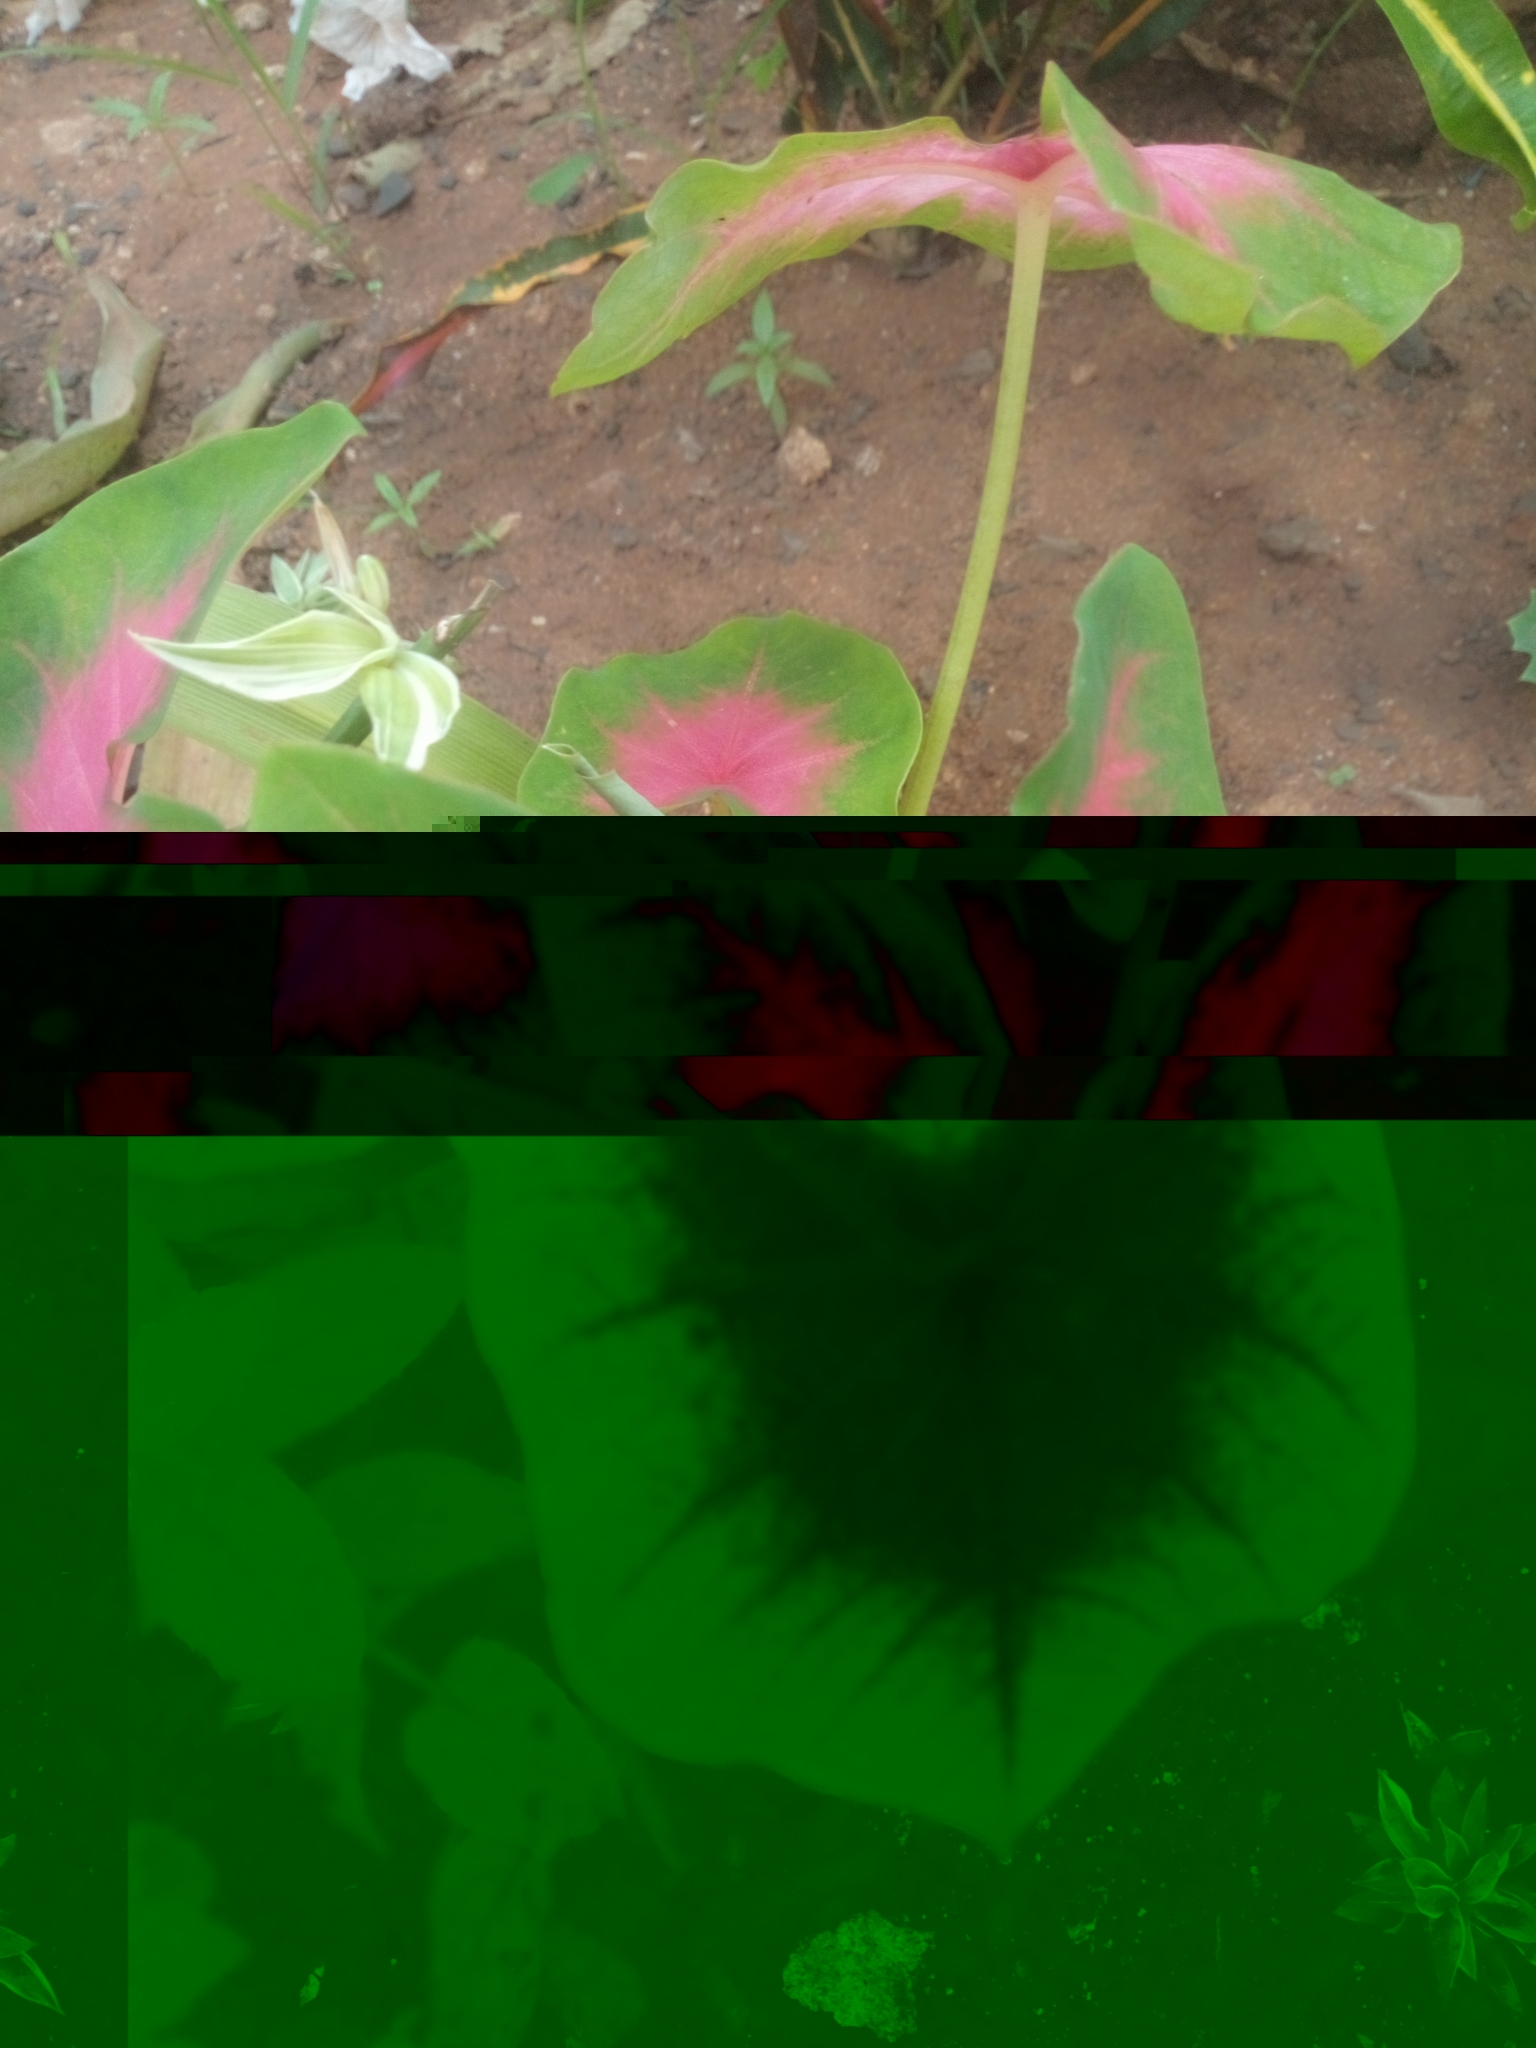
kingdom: Plantae
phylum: Tracheophyta
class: Liliopsida
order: Alismatales
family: Araceae
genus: Caladium
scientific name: Caladium bicolor
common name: Artist's pallet
